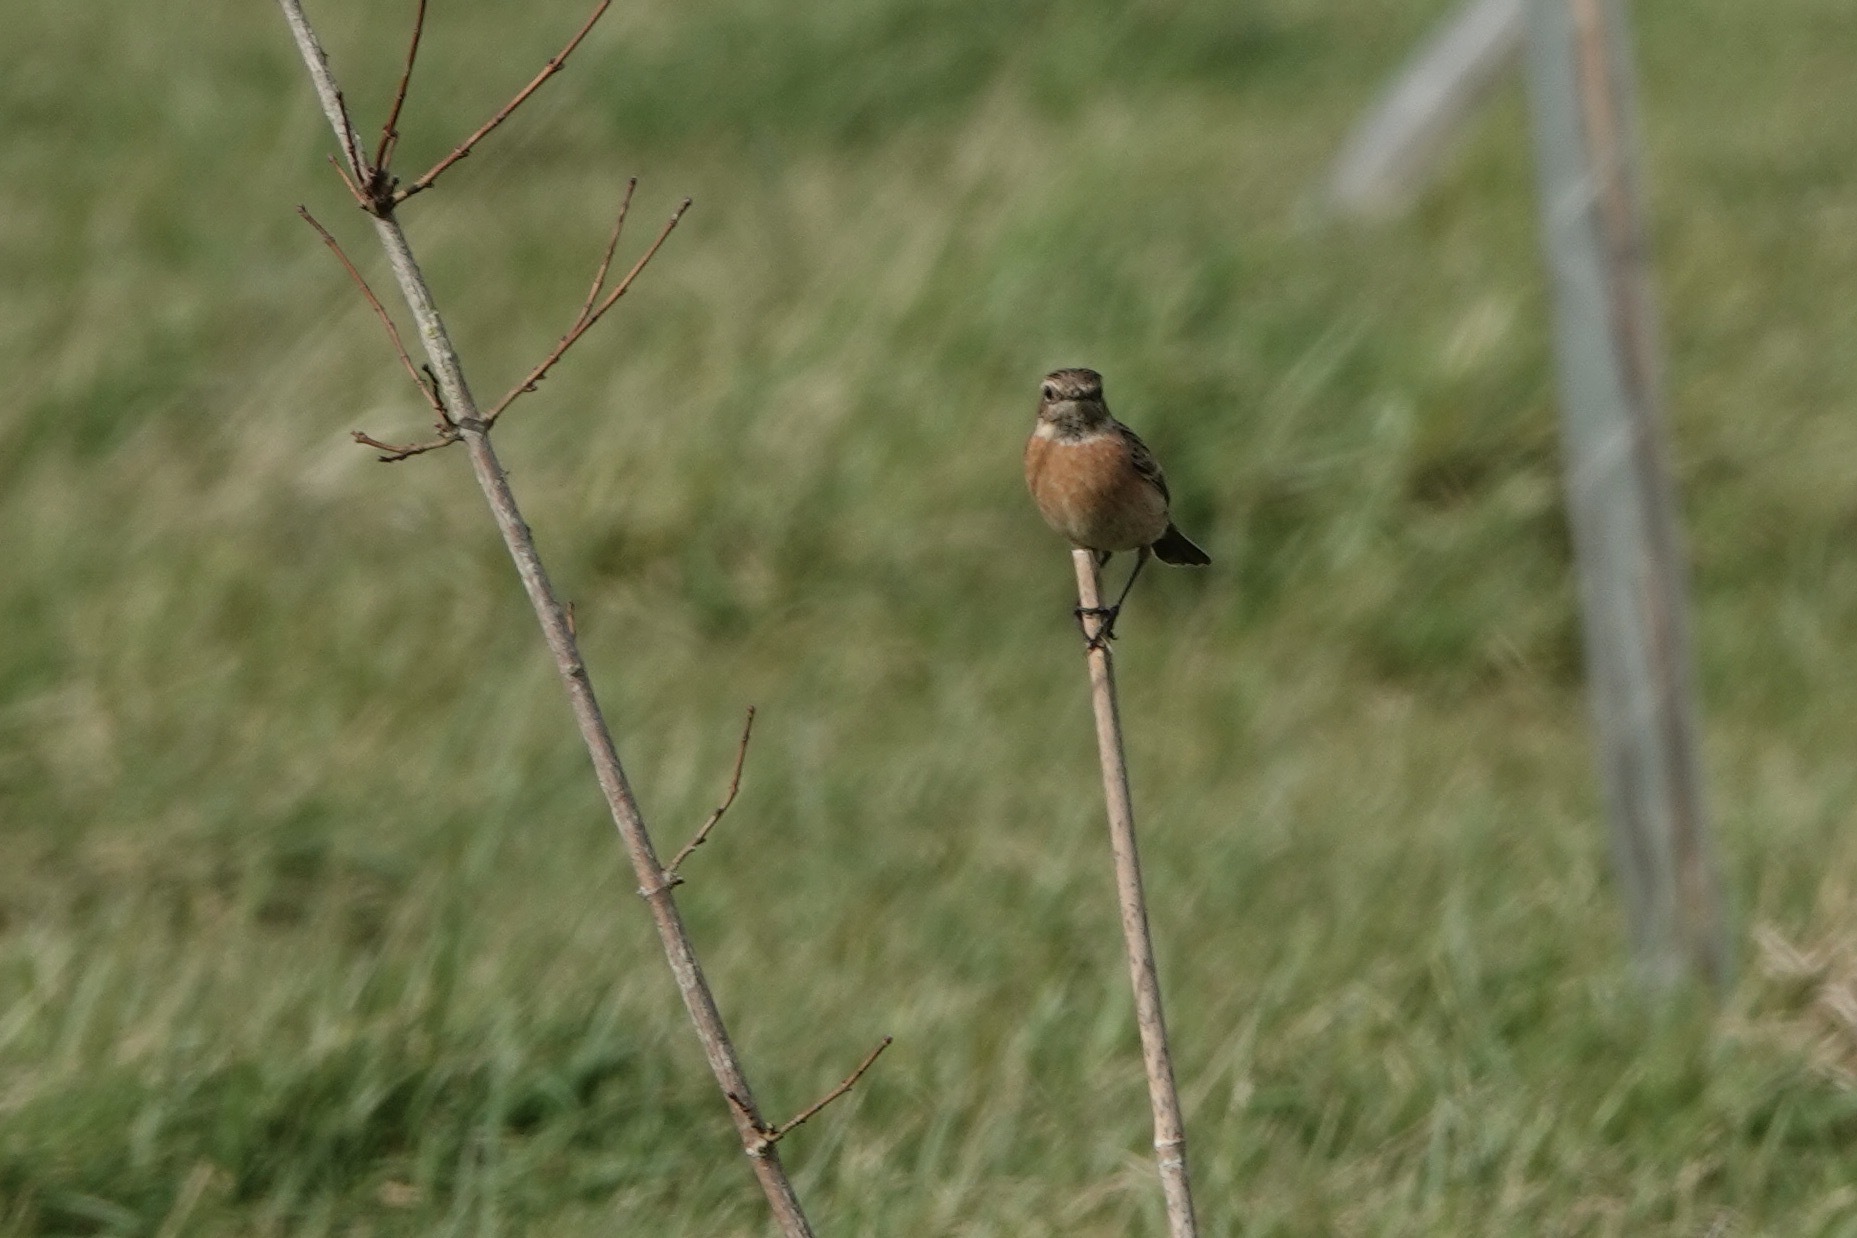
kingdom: Animalia
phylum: Chordata
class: Aves
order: Passeriformes
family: Muscicapidae
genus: Saxicola
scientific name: Saxicola rubicola
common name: European stonechat
